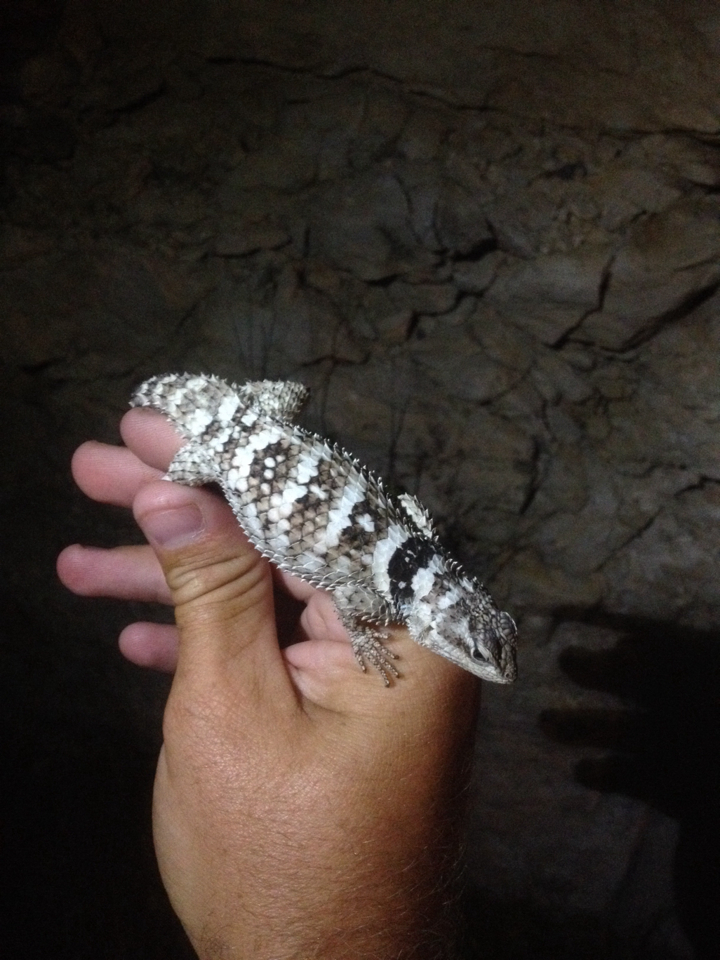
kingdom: Animalia
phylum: Chordata
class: Squamata
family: Phrynosomatidae
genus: Sceloporus
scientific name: Sceloporus poinsettii
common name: Crevice spiny lizard
